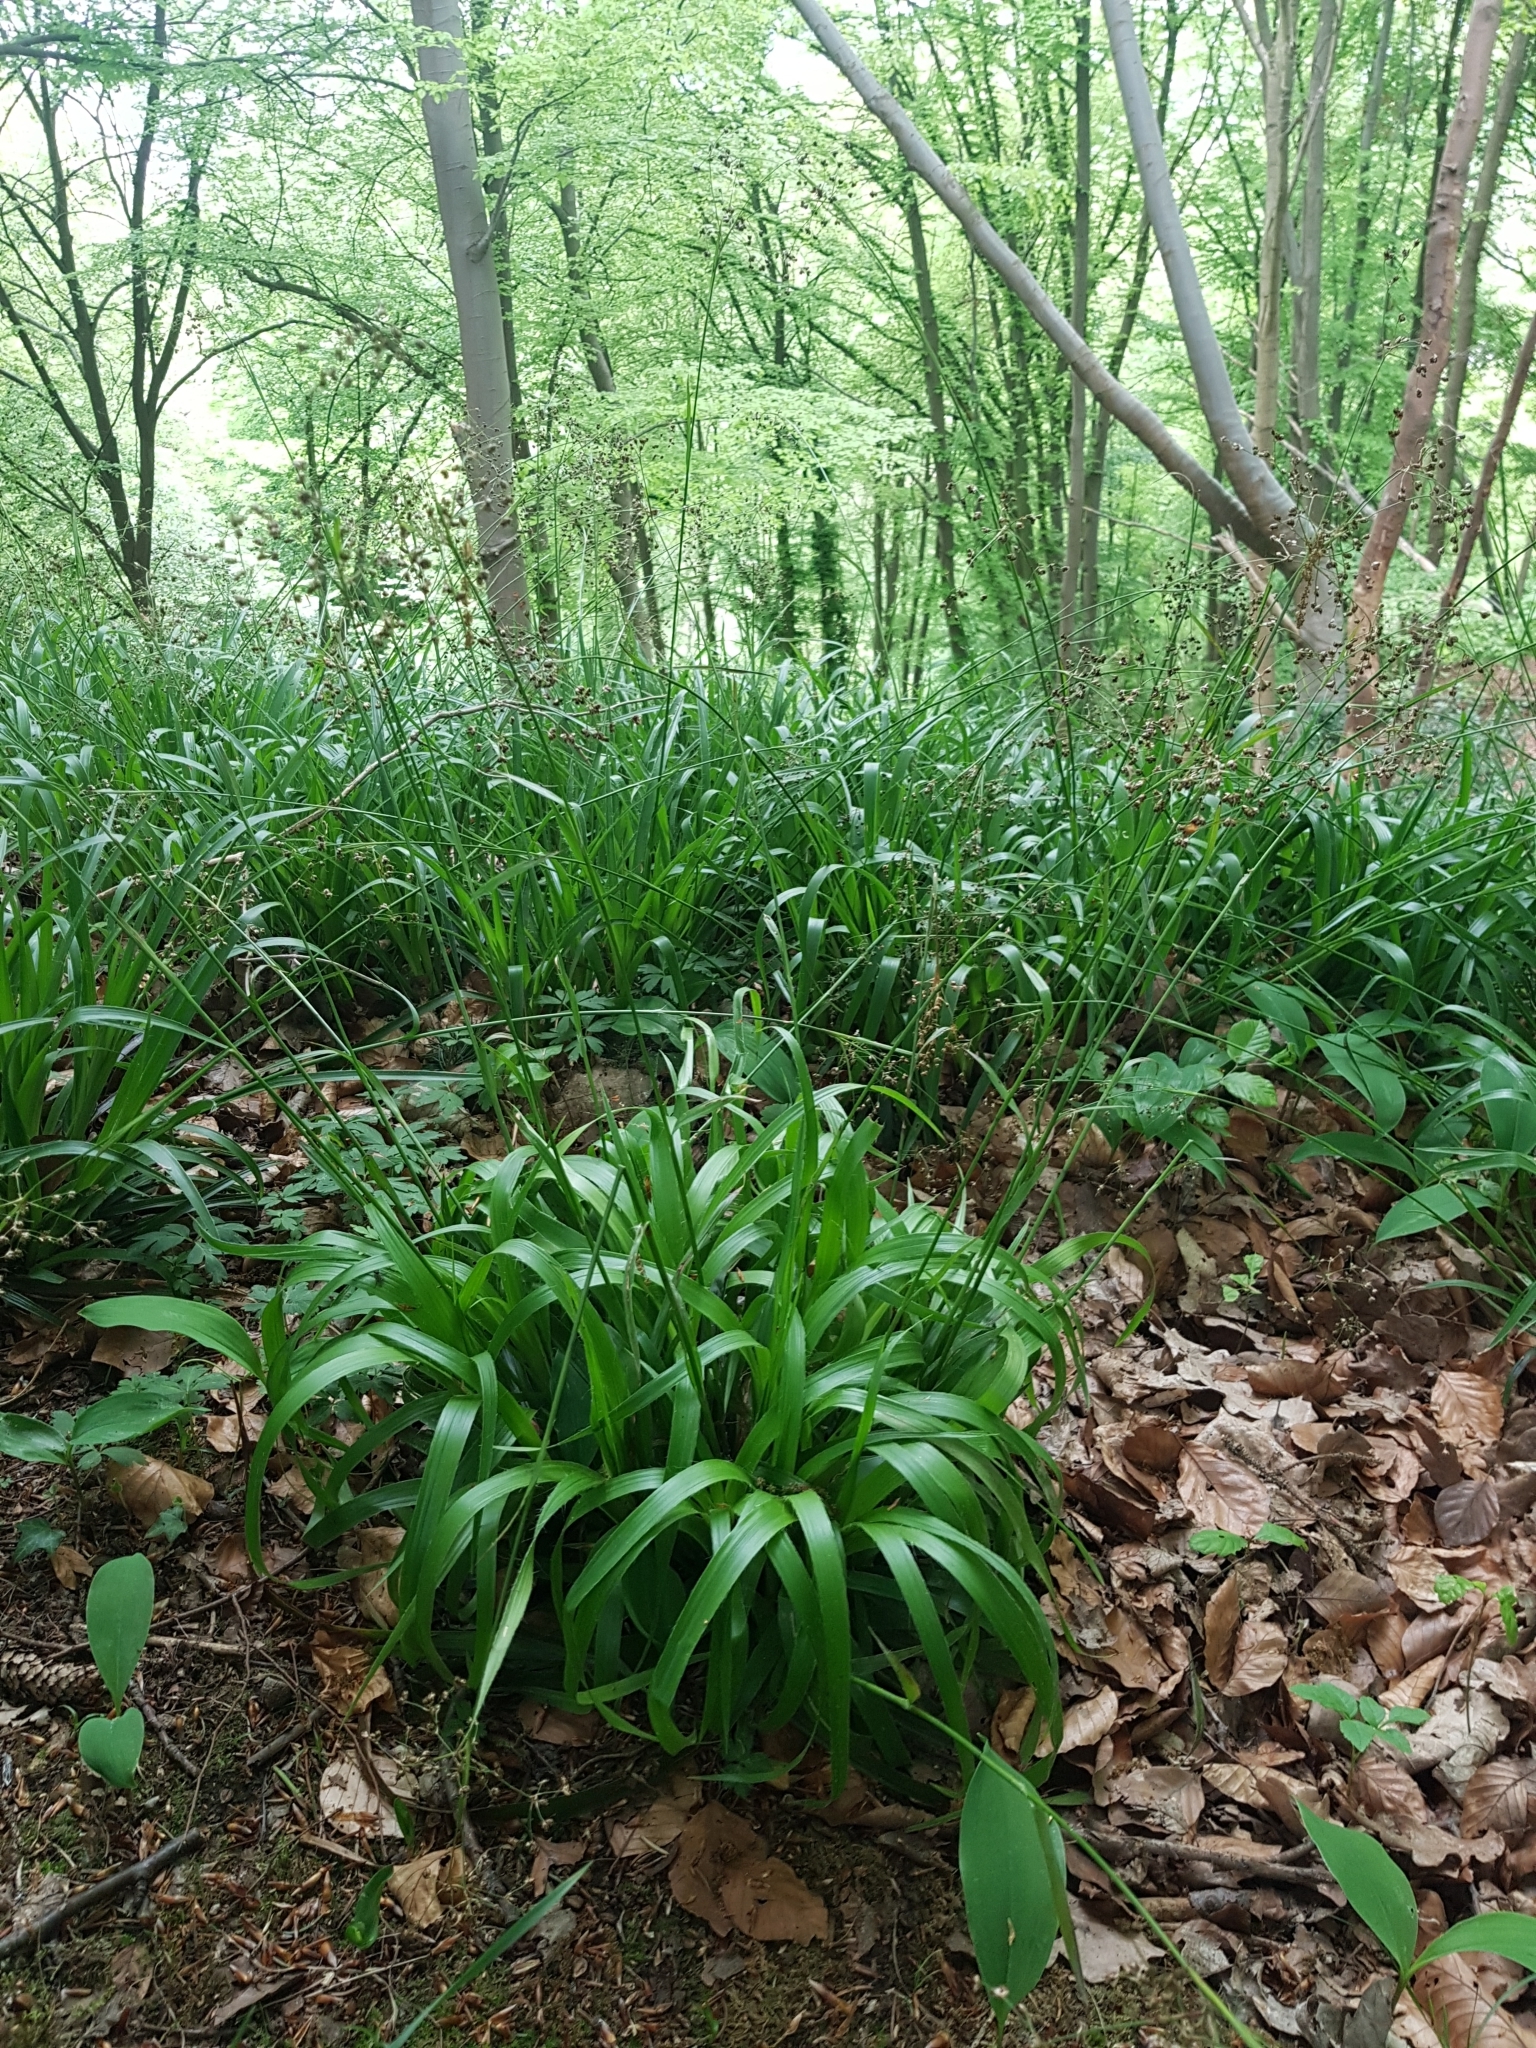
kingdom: Plantae
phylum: Tracheophyta
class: Liliopsida
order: Poales
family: Juncaceae
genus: Luzula
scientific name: Luzula sylvatica
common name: Great wood-rush
